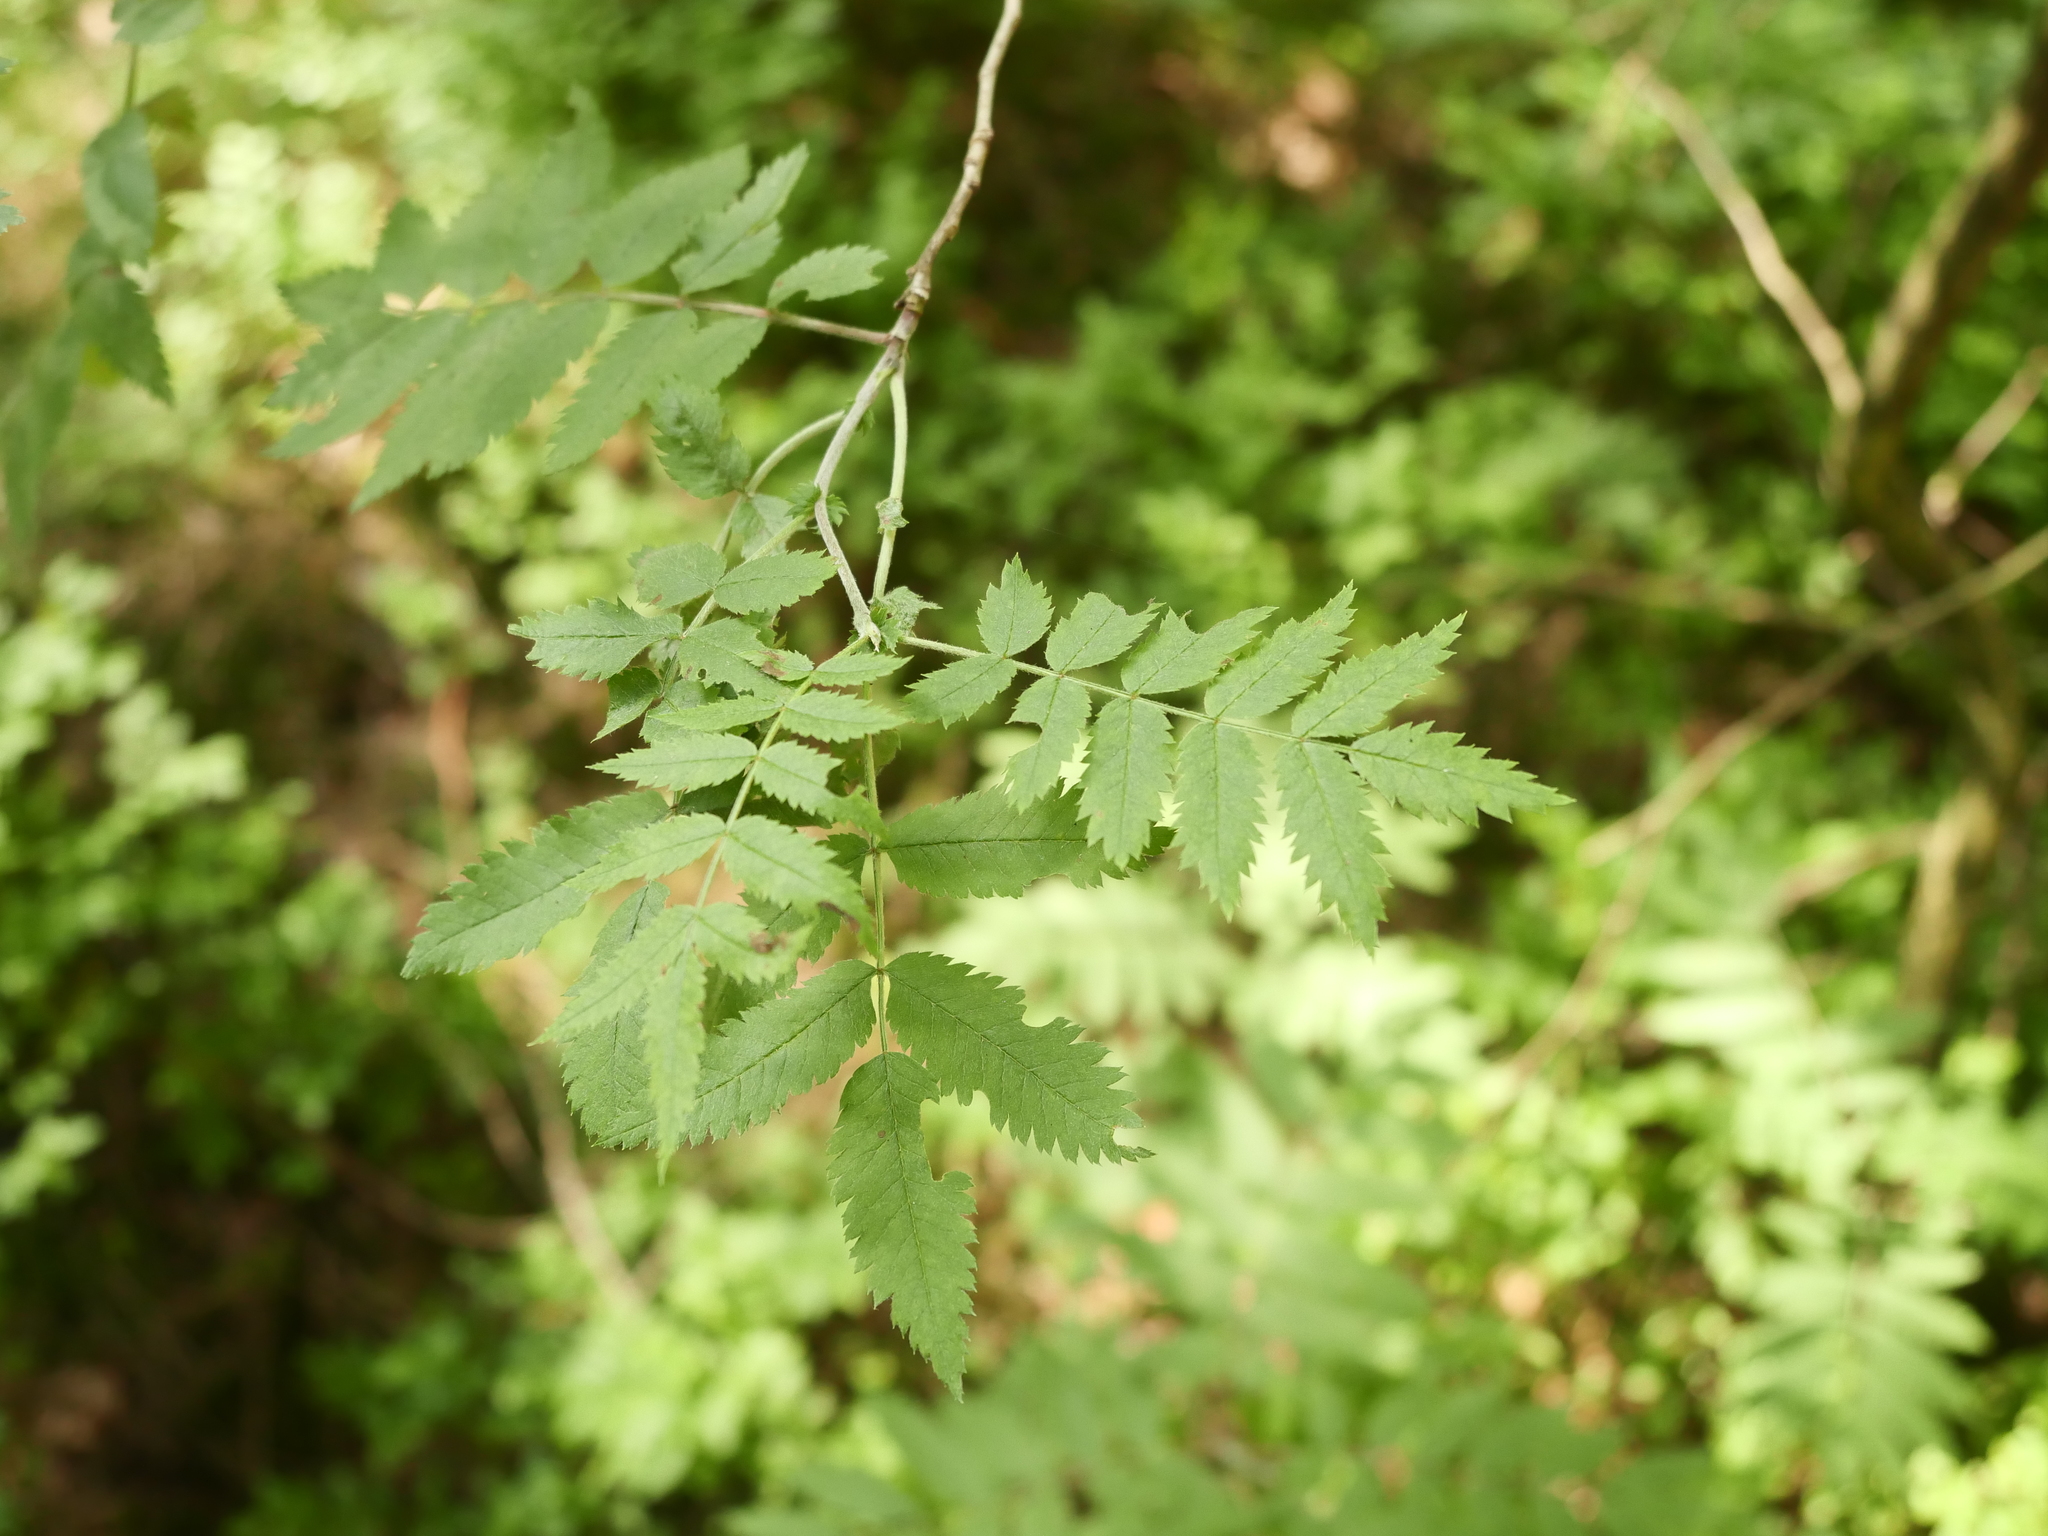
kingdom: Plantae
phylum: Tracheophyta
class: Magnoliopsida
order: Rosales
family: Rosaceae
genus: Sorbus
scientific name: Sorbus aucuparia
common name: Rowan
